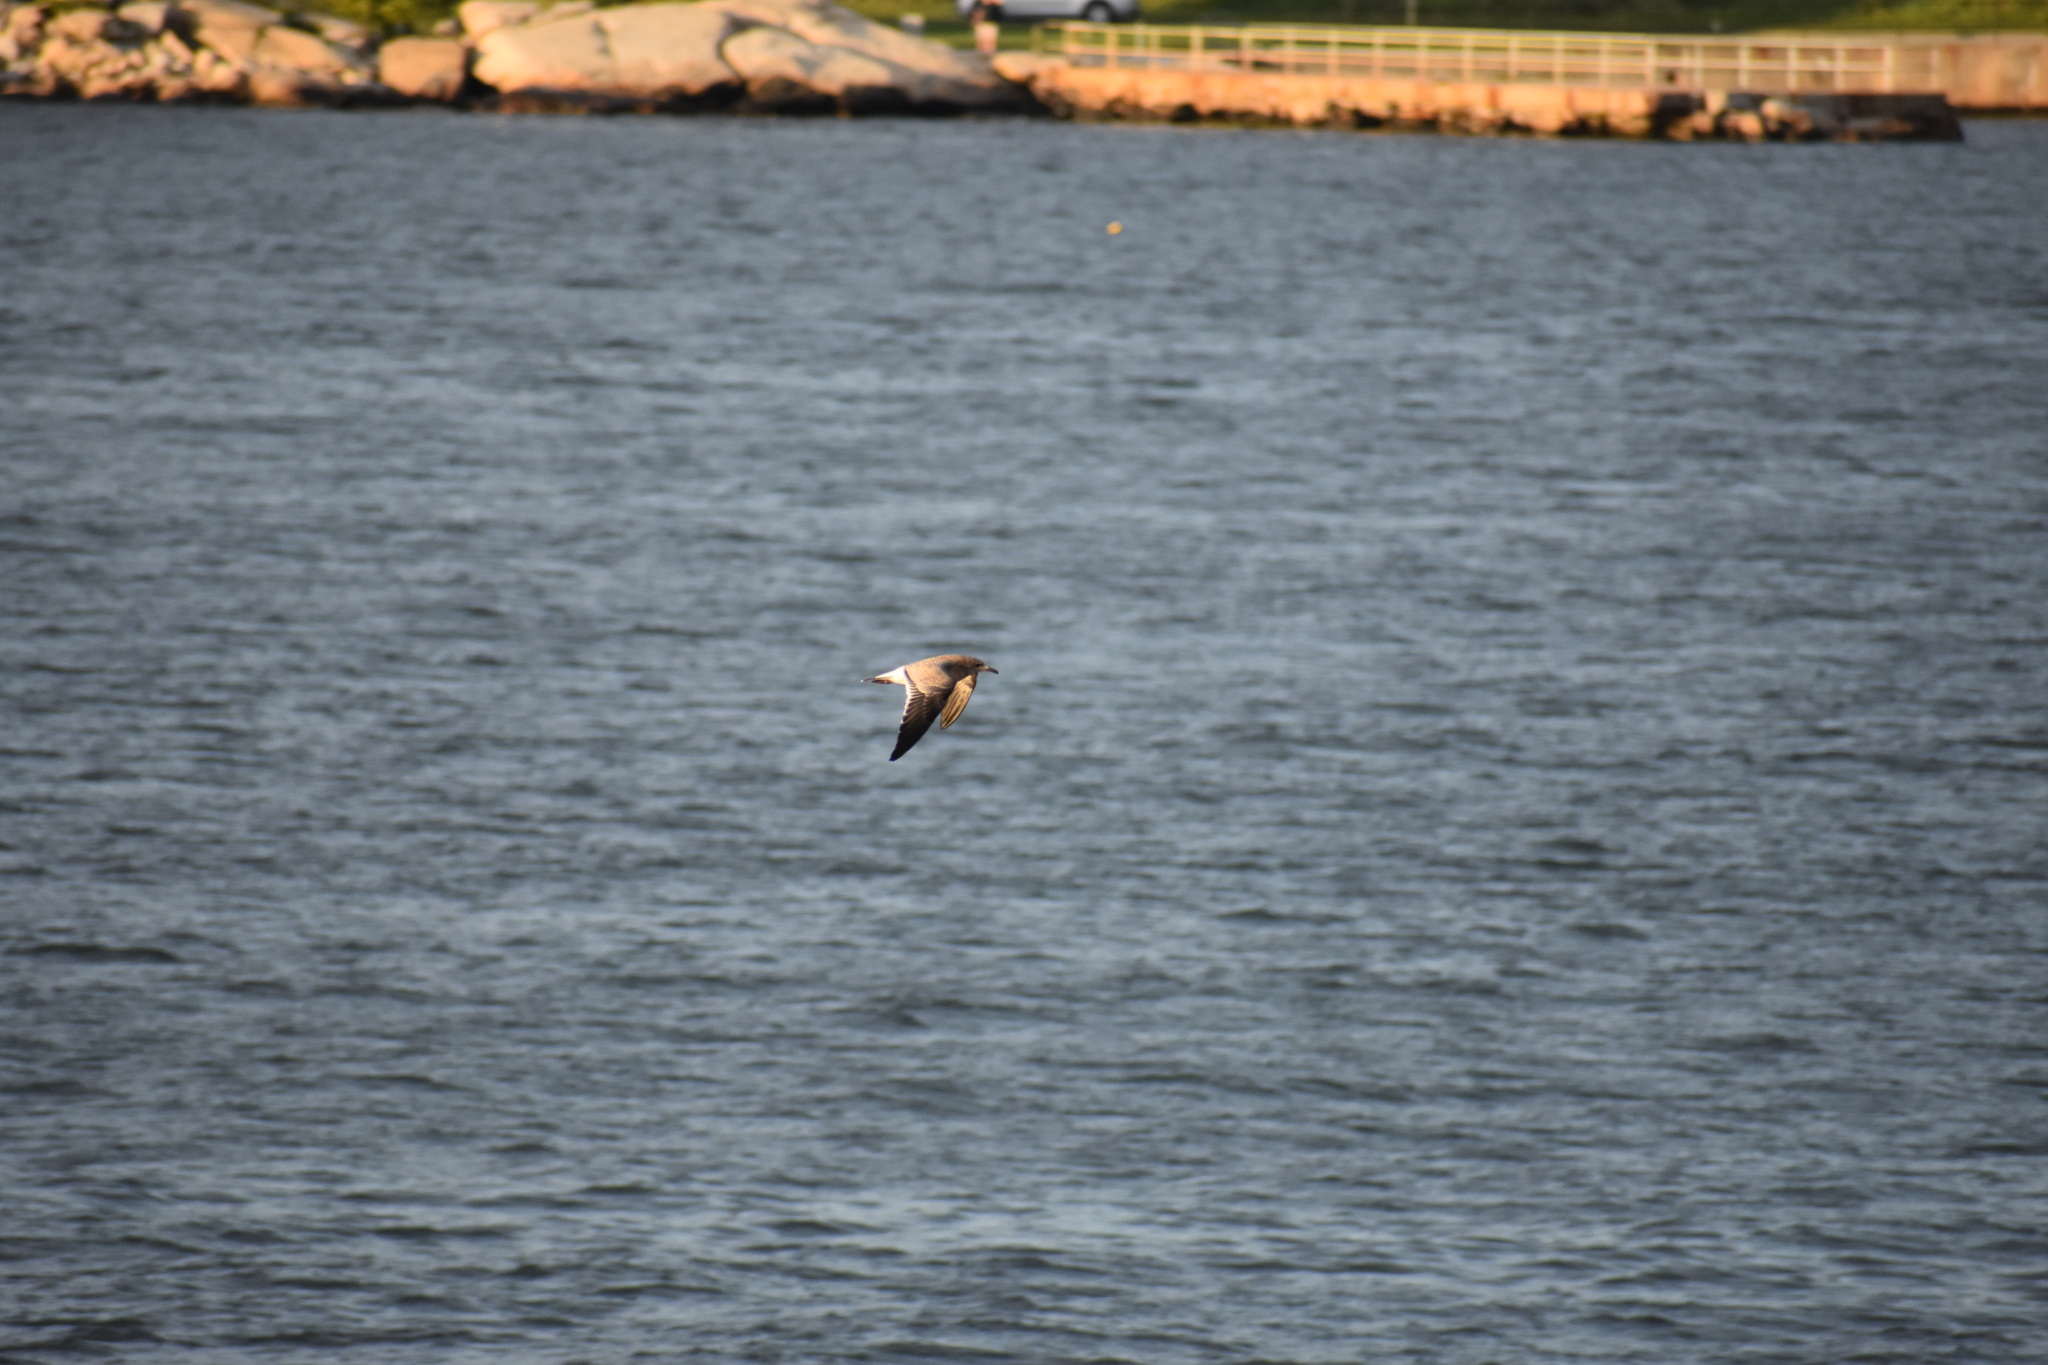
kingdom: Animalia
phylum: Chordata
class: Aves
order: Charadriiformes
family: Laridae
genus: Leucophaeus
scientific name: Leucophaeus atricilla
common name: Laughing gull
